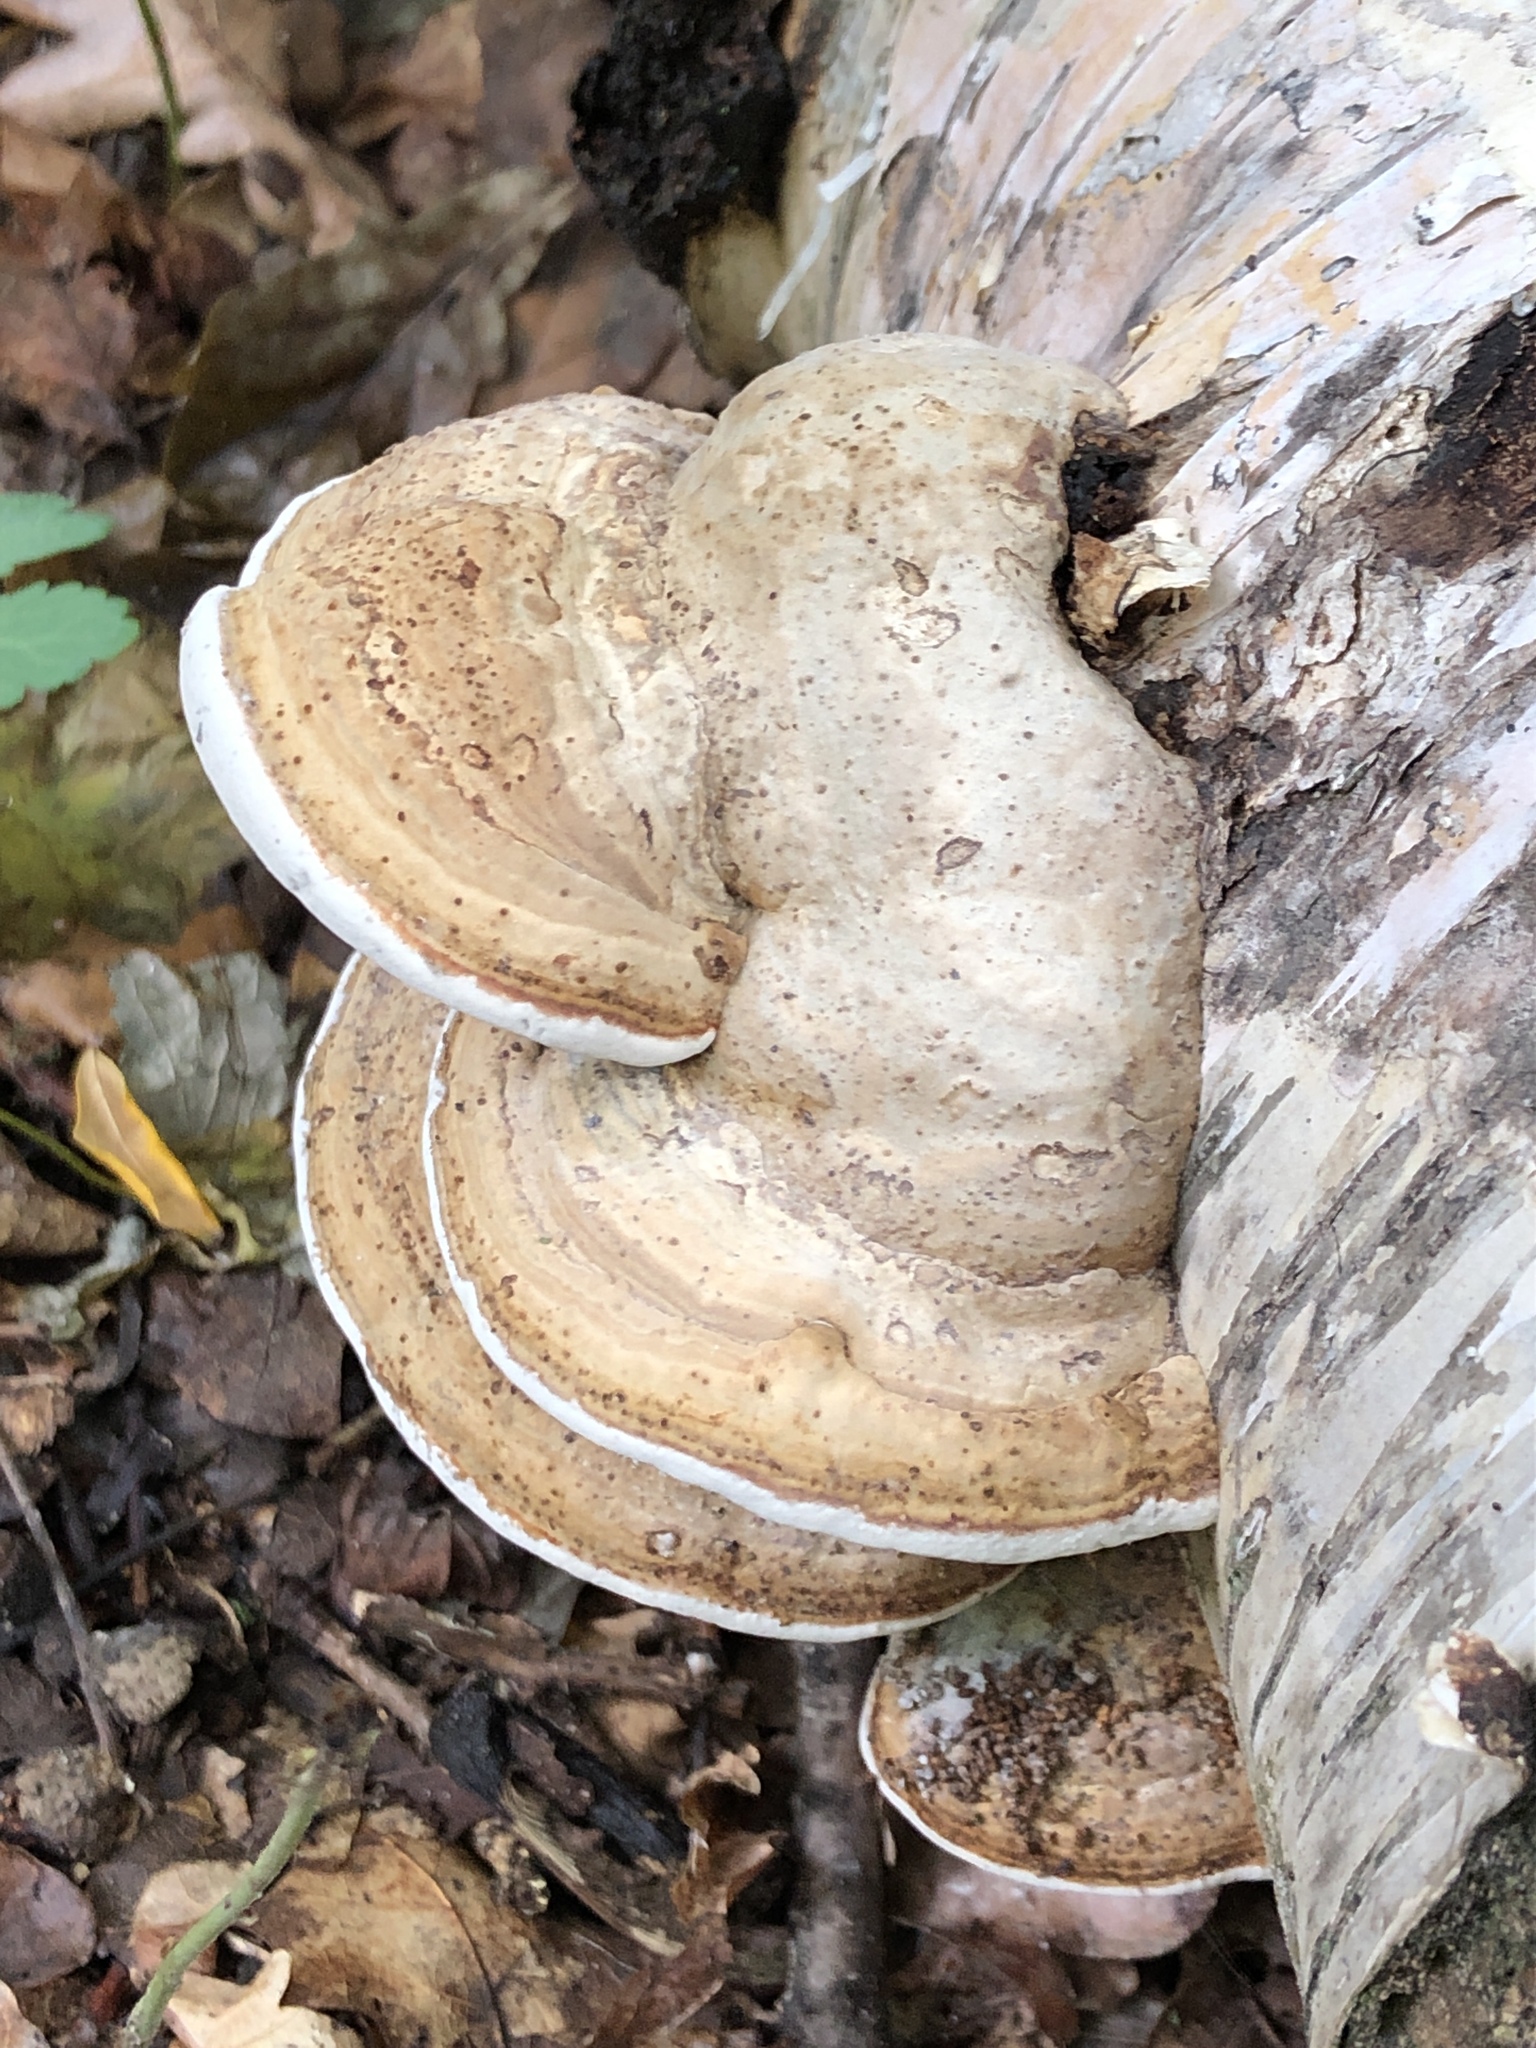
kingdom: Fungi
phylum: Basidiomycota
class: Agaricomycetes
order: Polyporales
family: Polyporaceae
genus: Fomes
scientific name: Fomes fomentarius
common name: Hoof fungus
